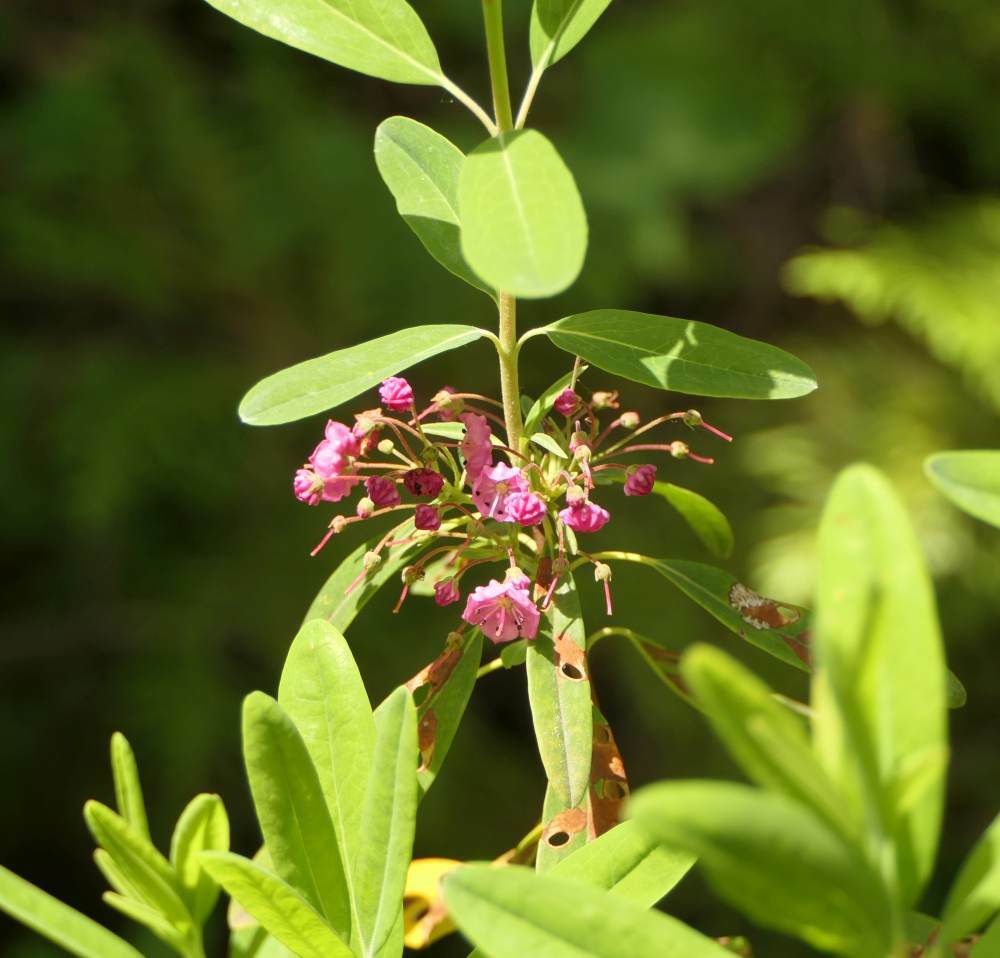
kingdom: Plantae
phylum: Tracheophyta
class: Magnoliopsida
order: Ericales
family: Ericaceae
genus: Kalmia
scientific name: Kalmia angustifolia
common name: Sheep-laurel
